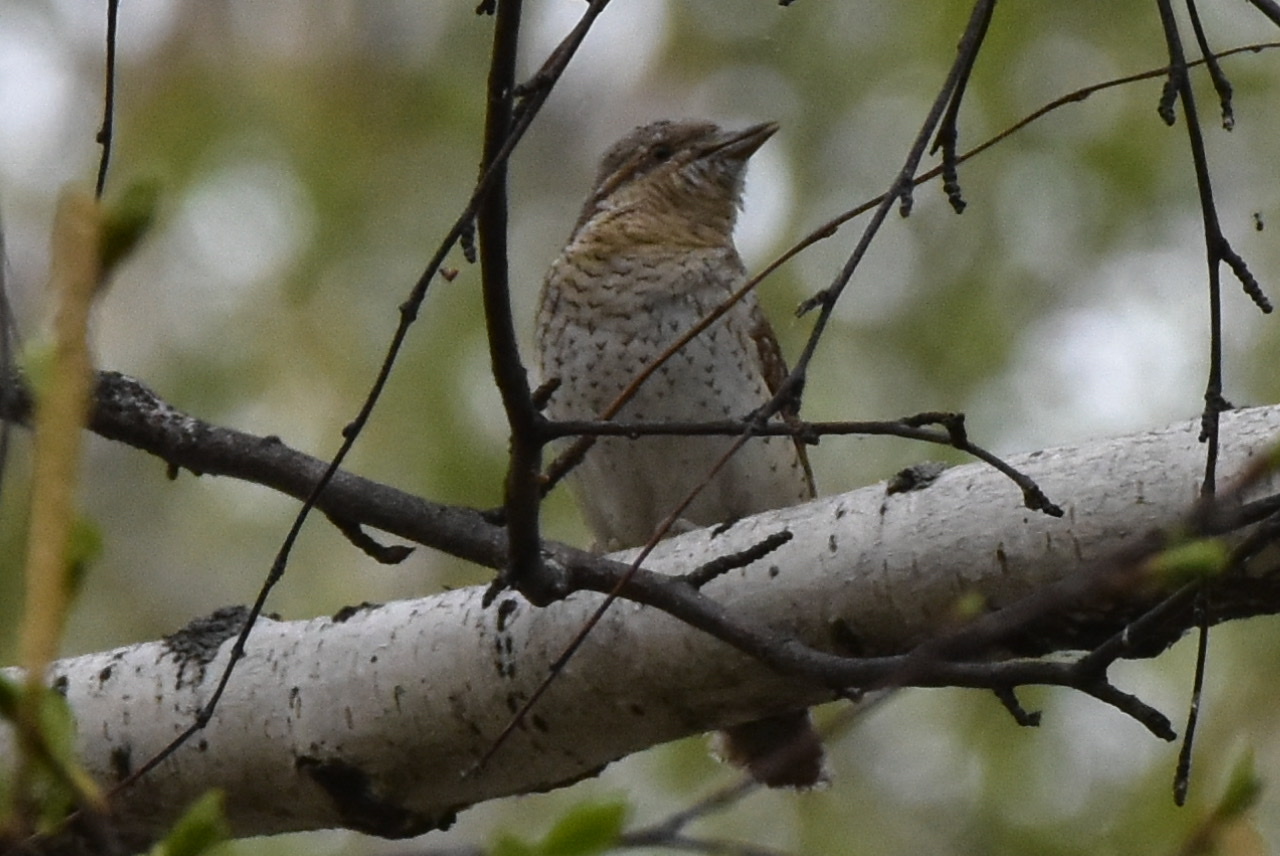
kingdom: Animalia
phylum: Chordata
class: Aves
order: Piciformes
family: Picidae
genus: Jynx
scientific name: Jynx torquilla
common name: Eurasian wryneck
